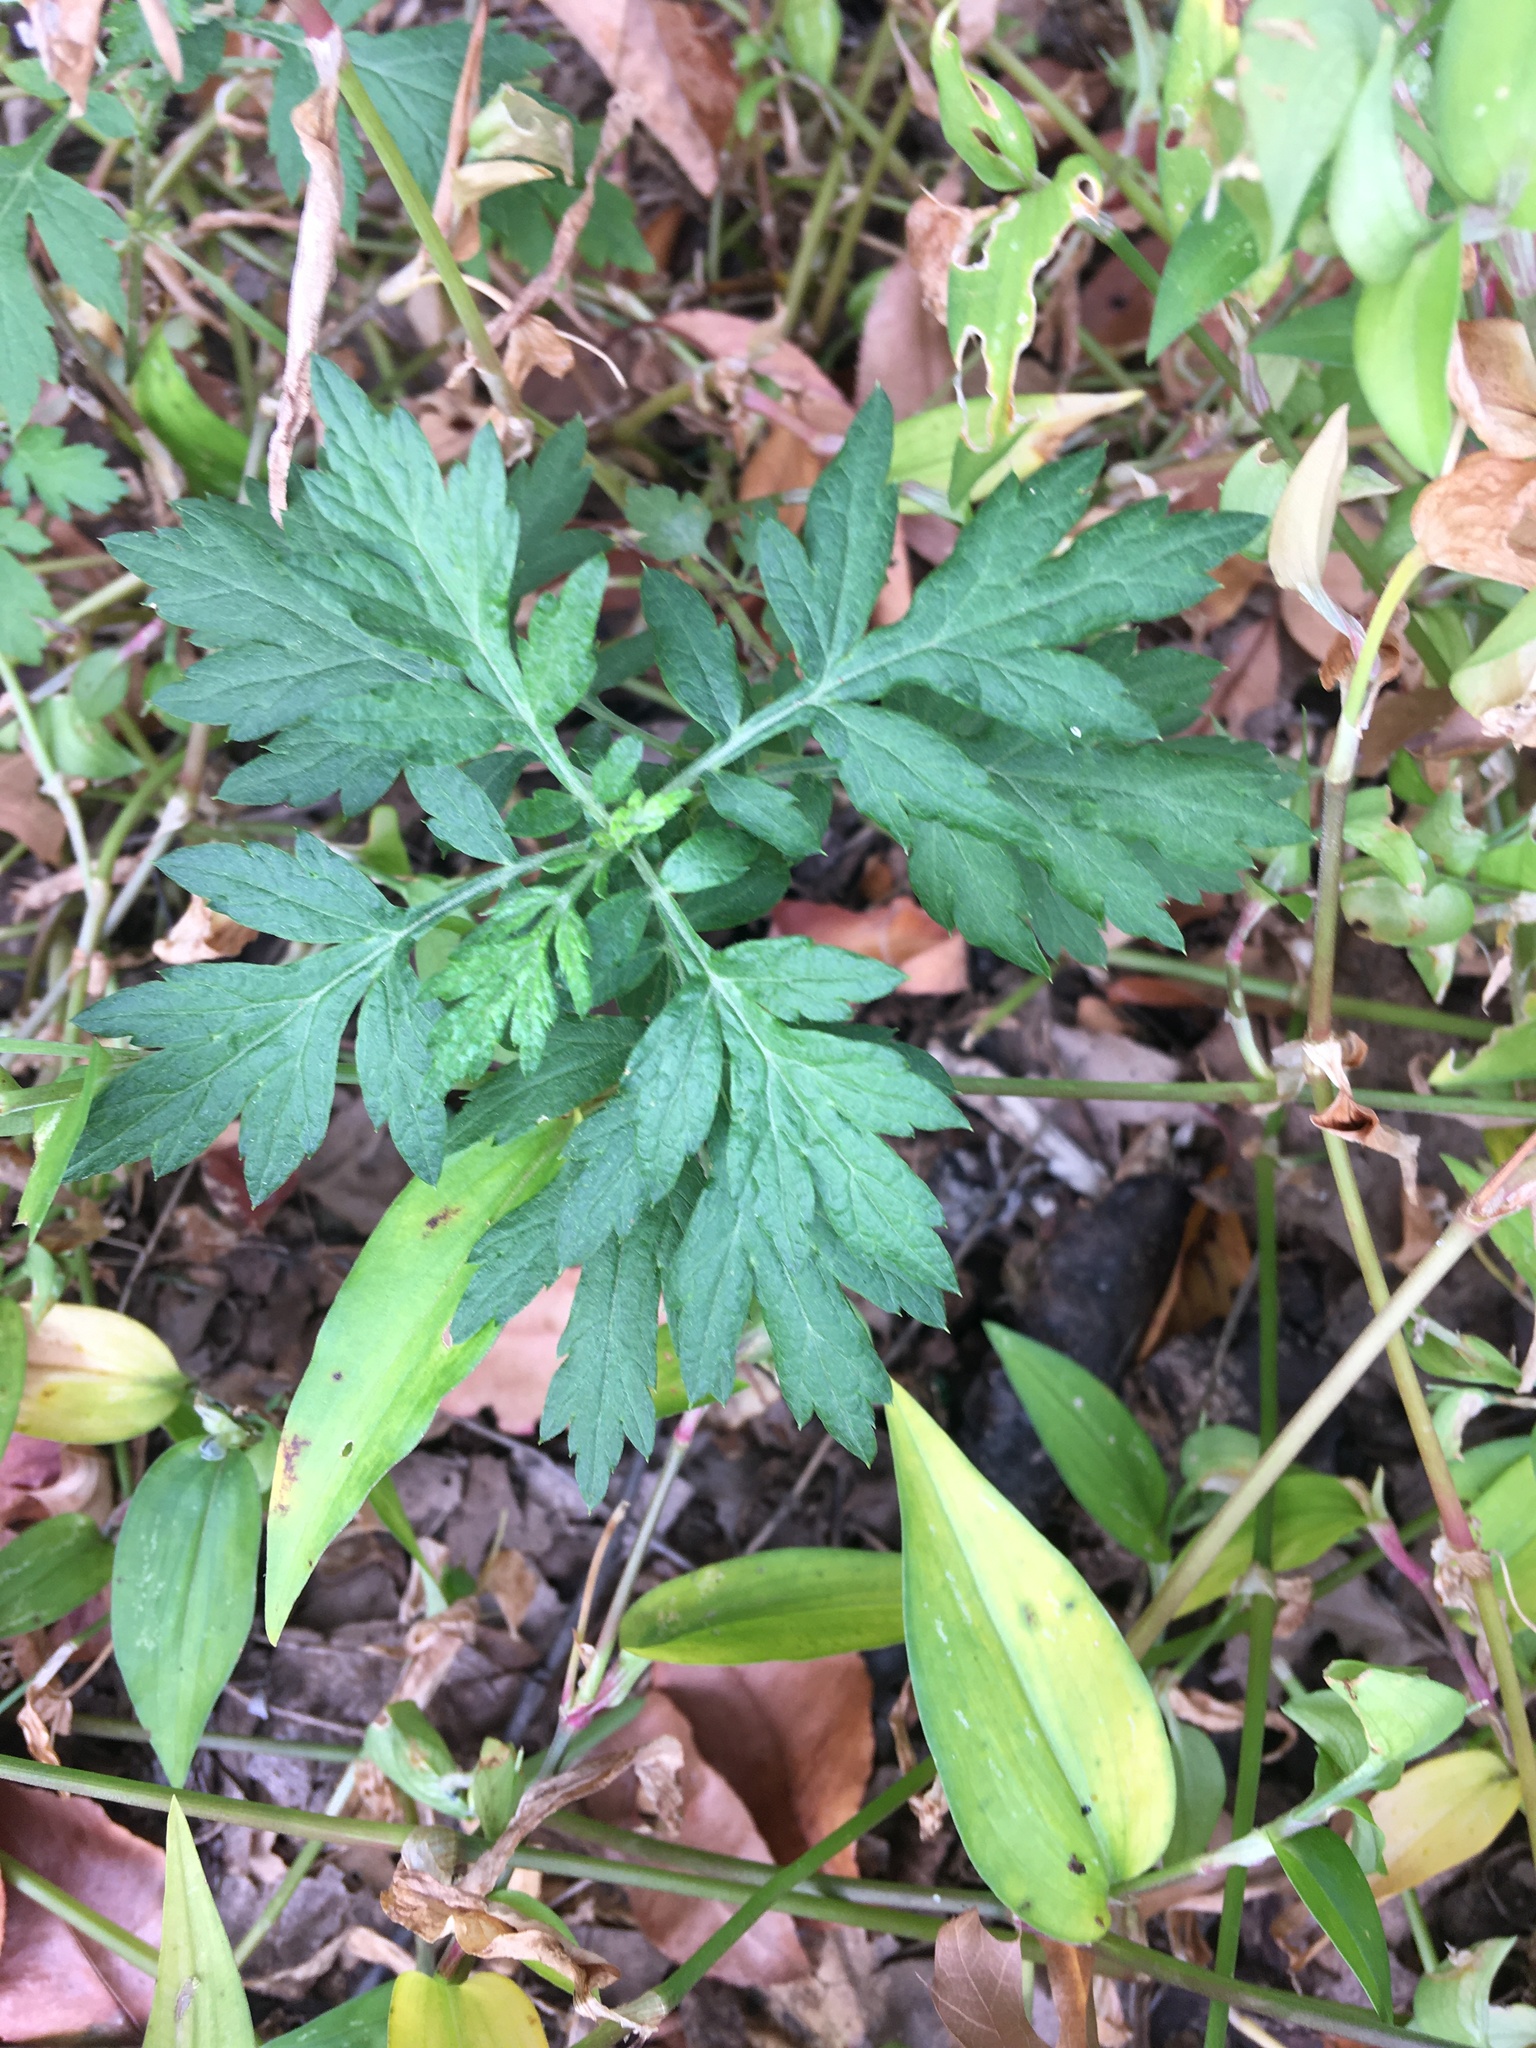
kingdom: Plantae
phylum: Tracheophyta
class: Magnoliopsida
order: Asterales
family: Asteraceae
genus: Artemisia
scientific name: Artemisia vulgaris
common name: Mugwort
